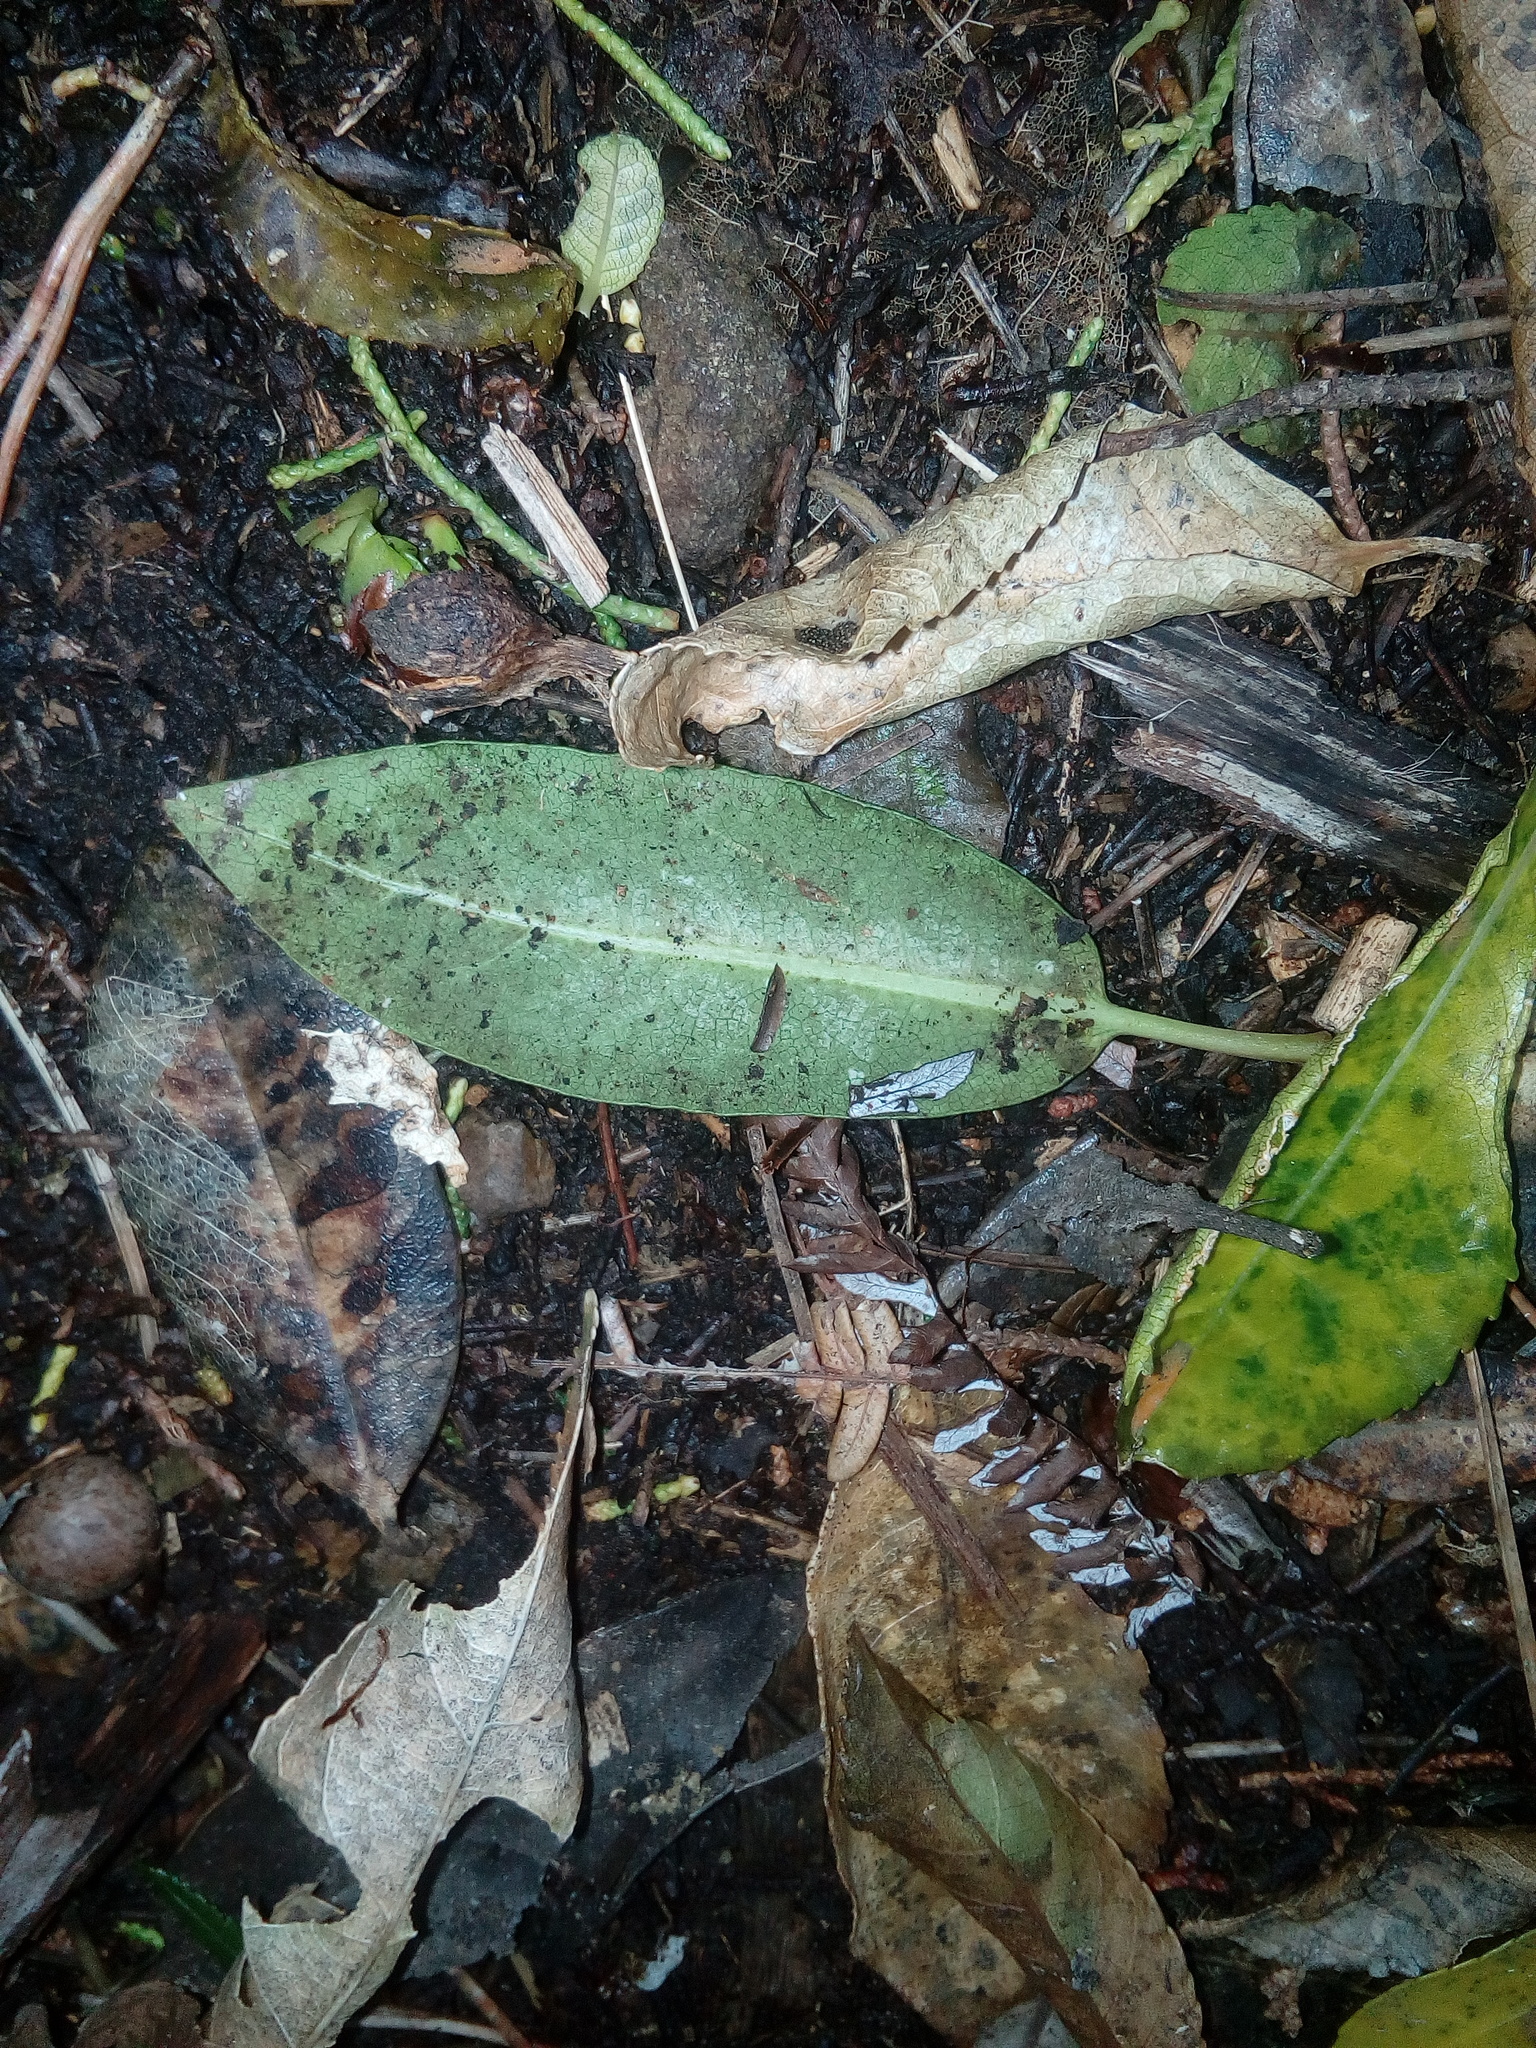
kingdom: Plantae
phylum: Tracheophyta
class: Magnoliopsida
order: Myrtales
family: Myrtaceae
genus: Metrosideros
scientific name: Metrosideros excelsa
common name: New zealand christmastree
